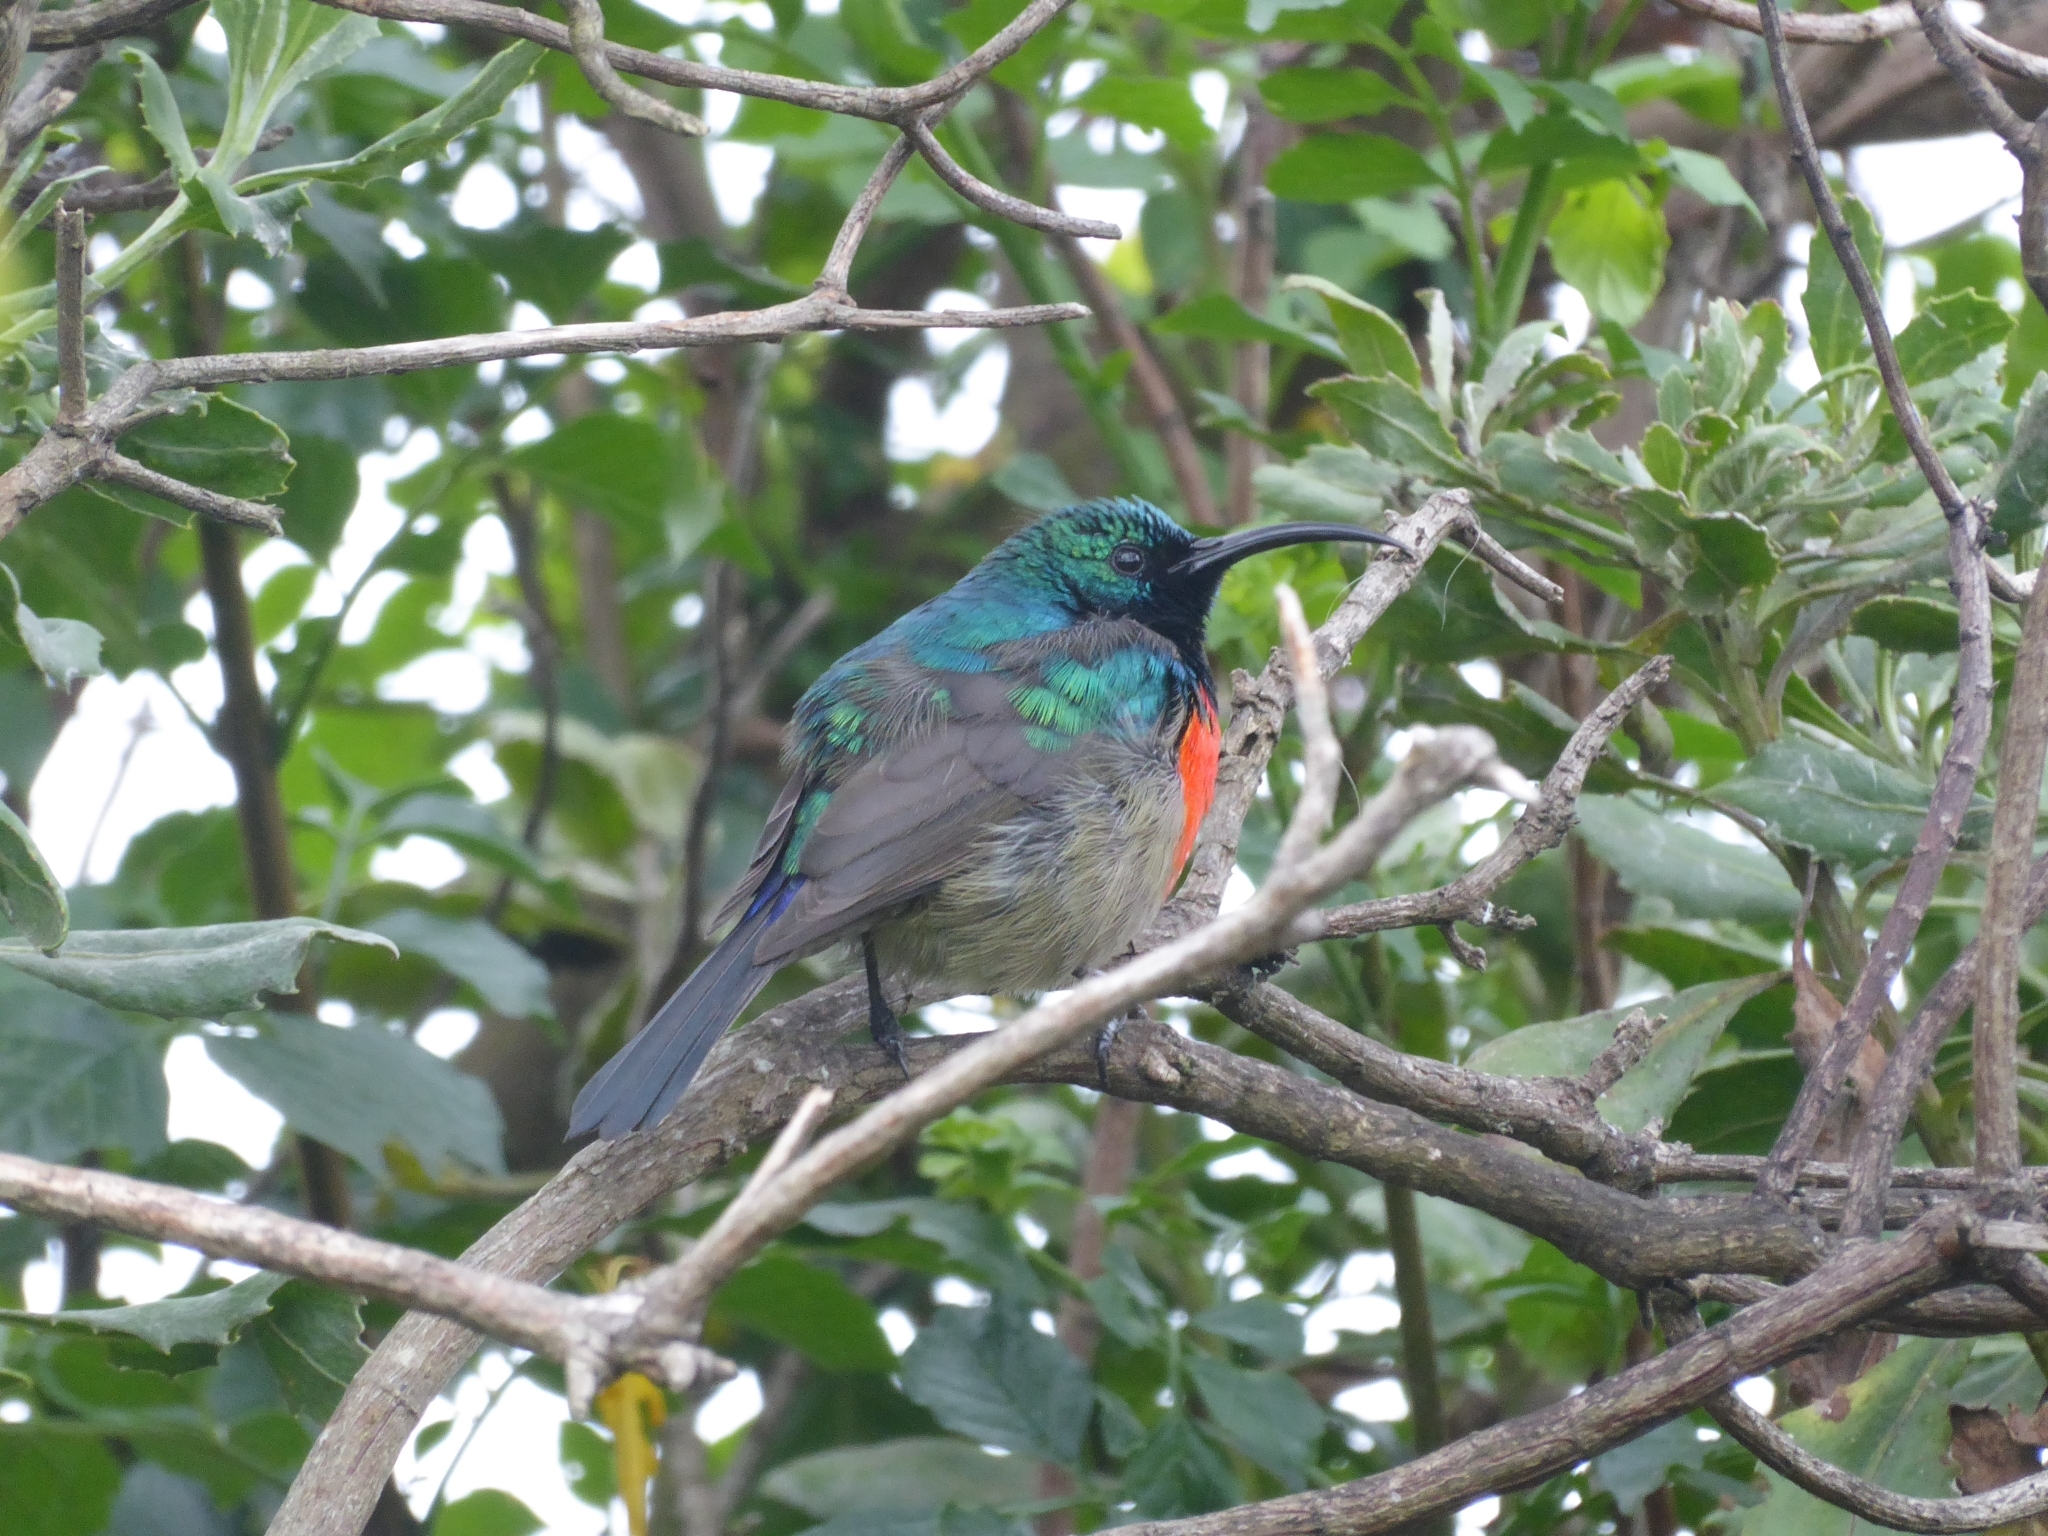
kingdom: Animalia
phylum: Chordata
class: Aves
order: Passeriformes
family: Nectariniidae
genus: Cinnyris
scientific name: Cinnyris afer
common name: Greater double-collared sunbird
